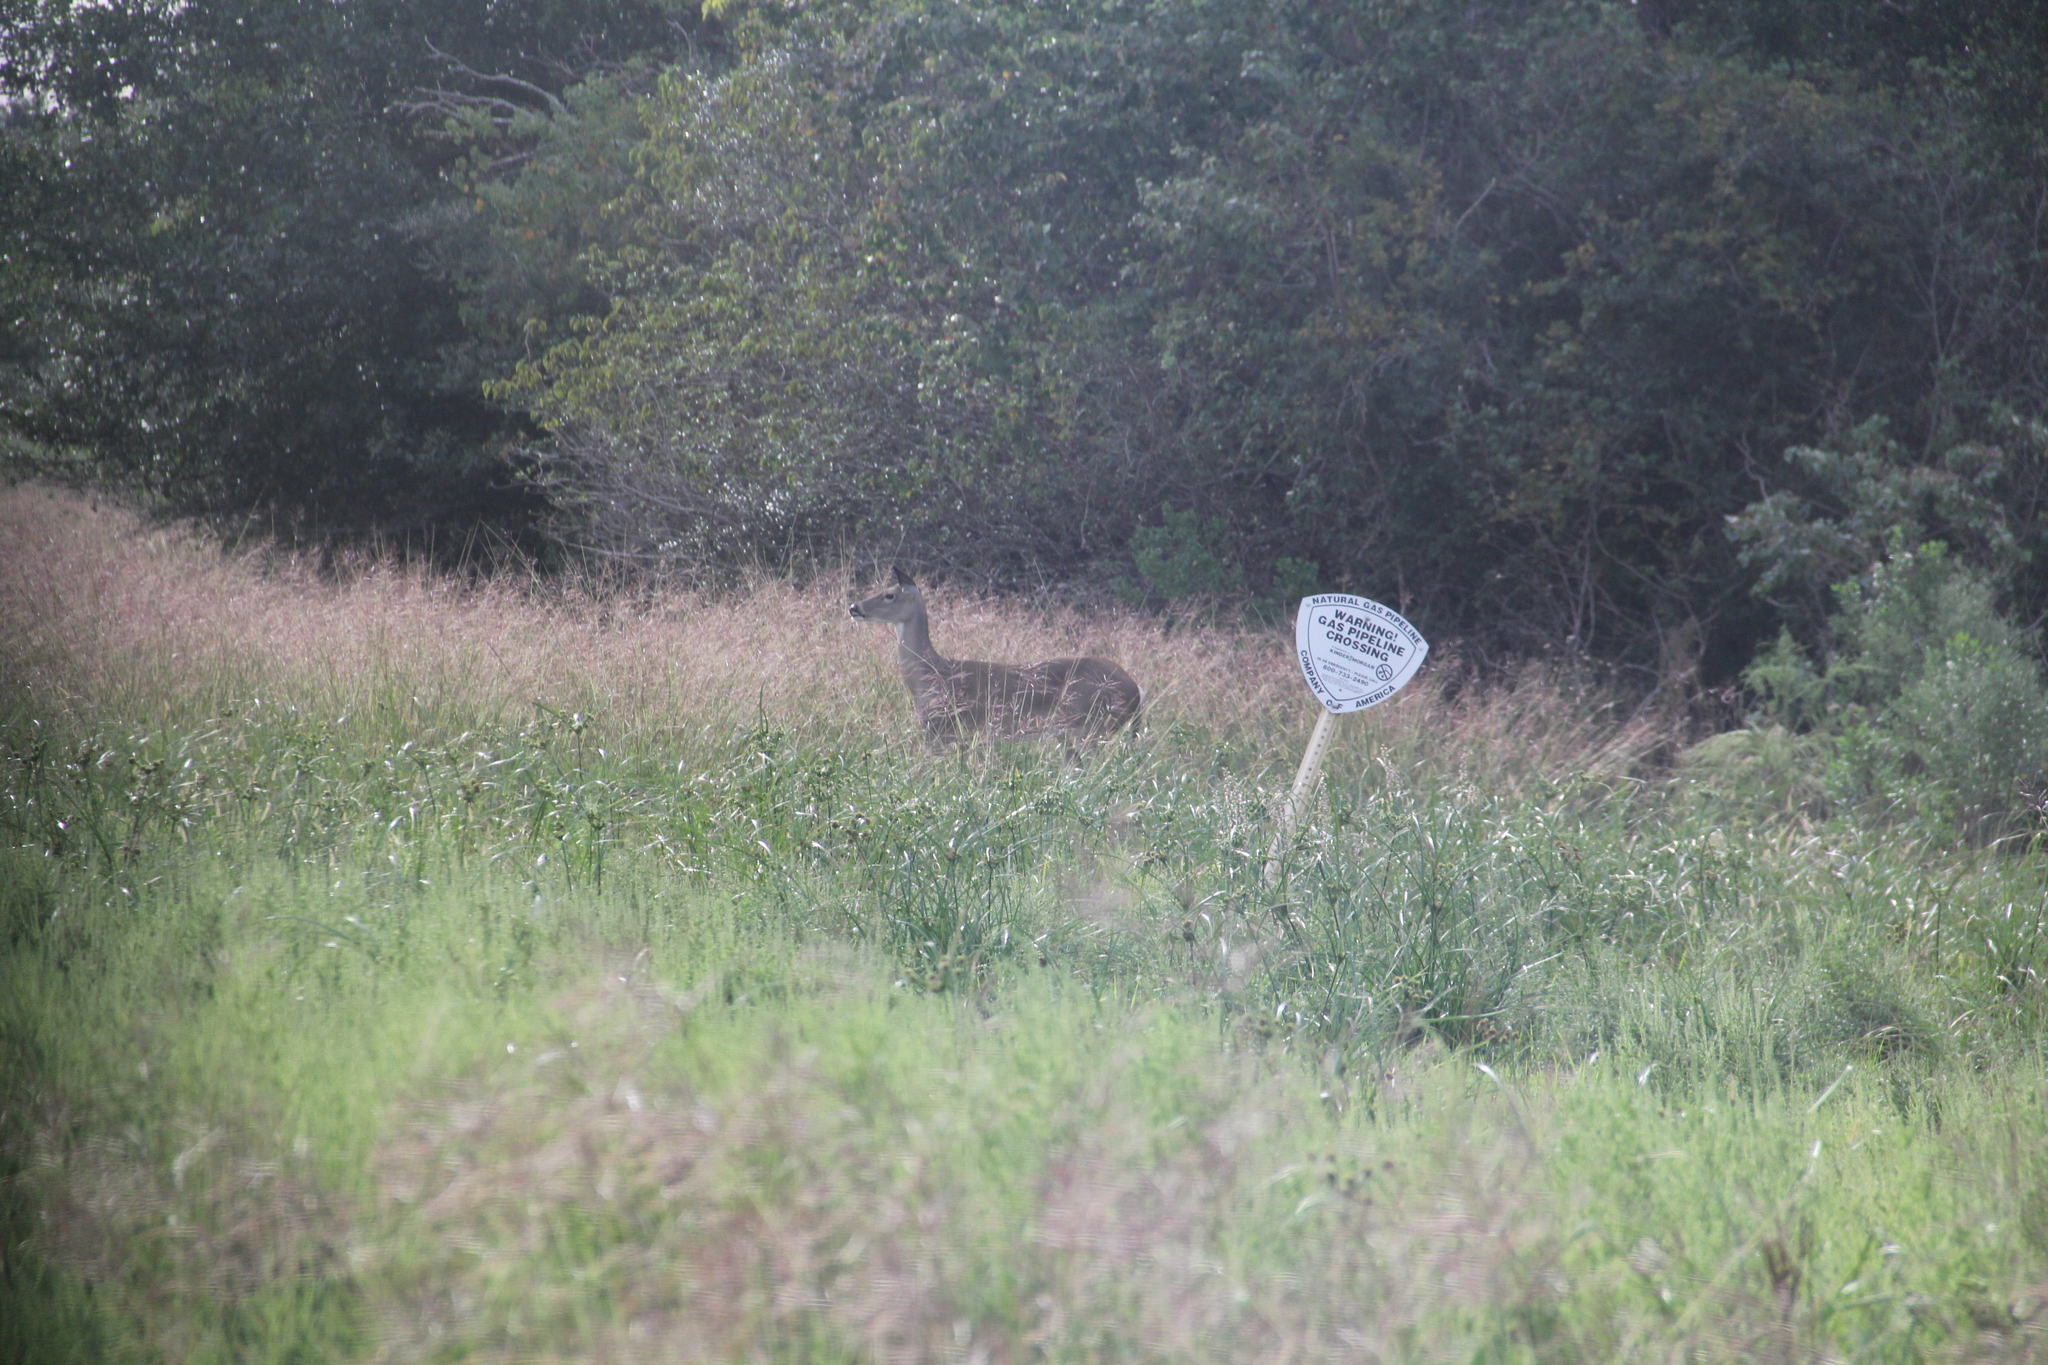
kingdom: Animalia
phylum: Chordata
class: Mammalia
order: Artiodactyla
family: Cervidae
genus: Odocoileus
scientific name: Odocoileus virginianus
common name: White-tailed deer
